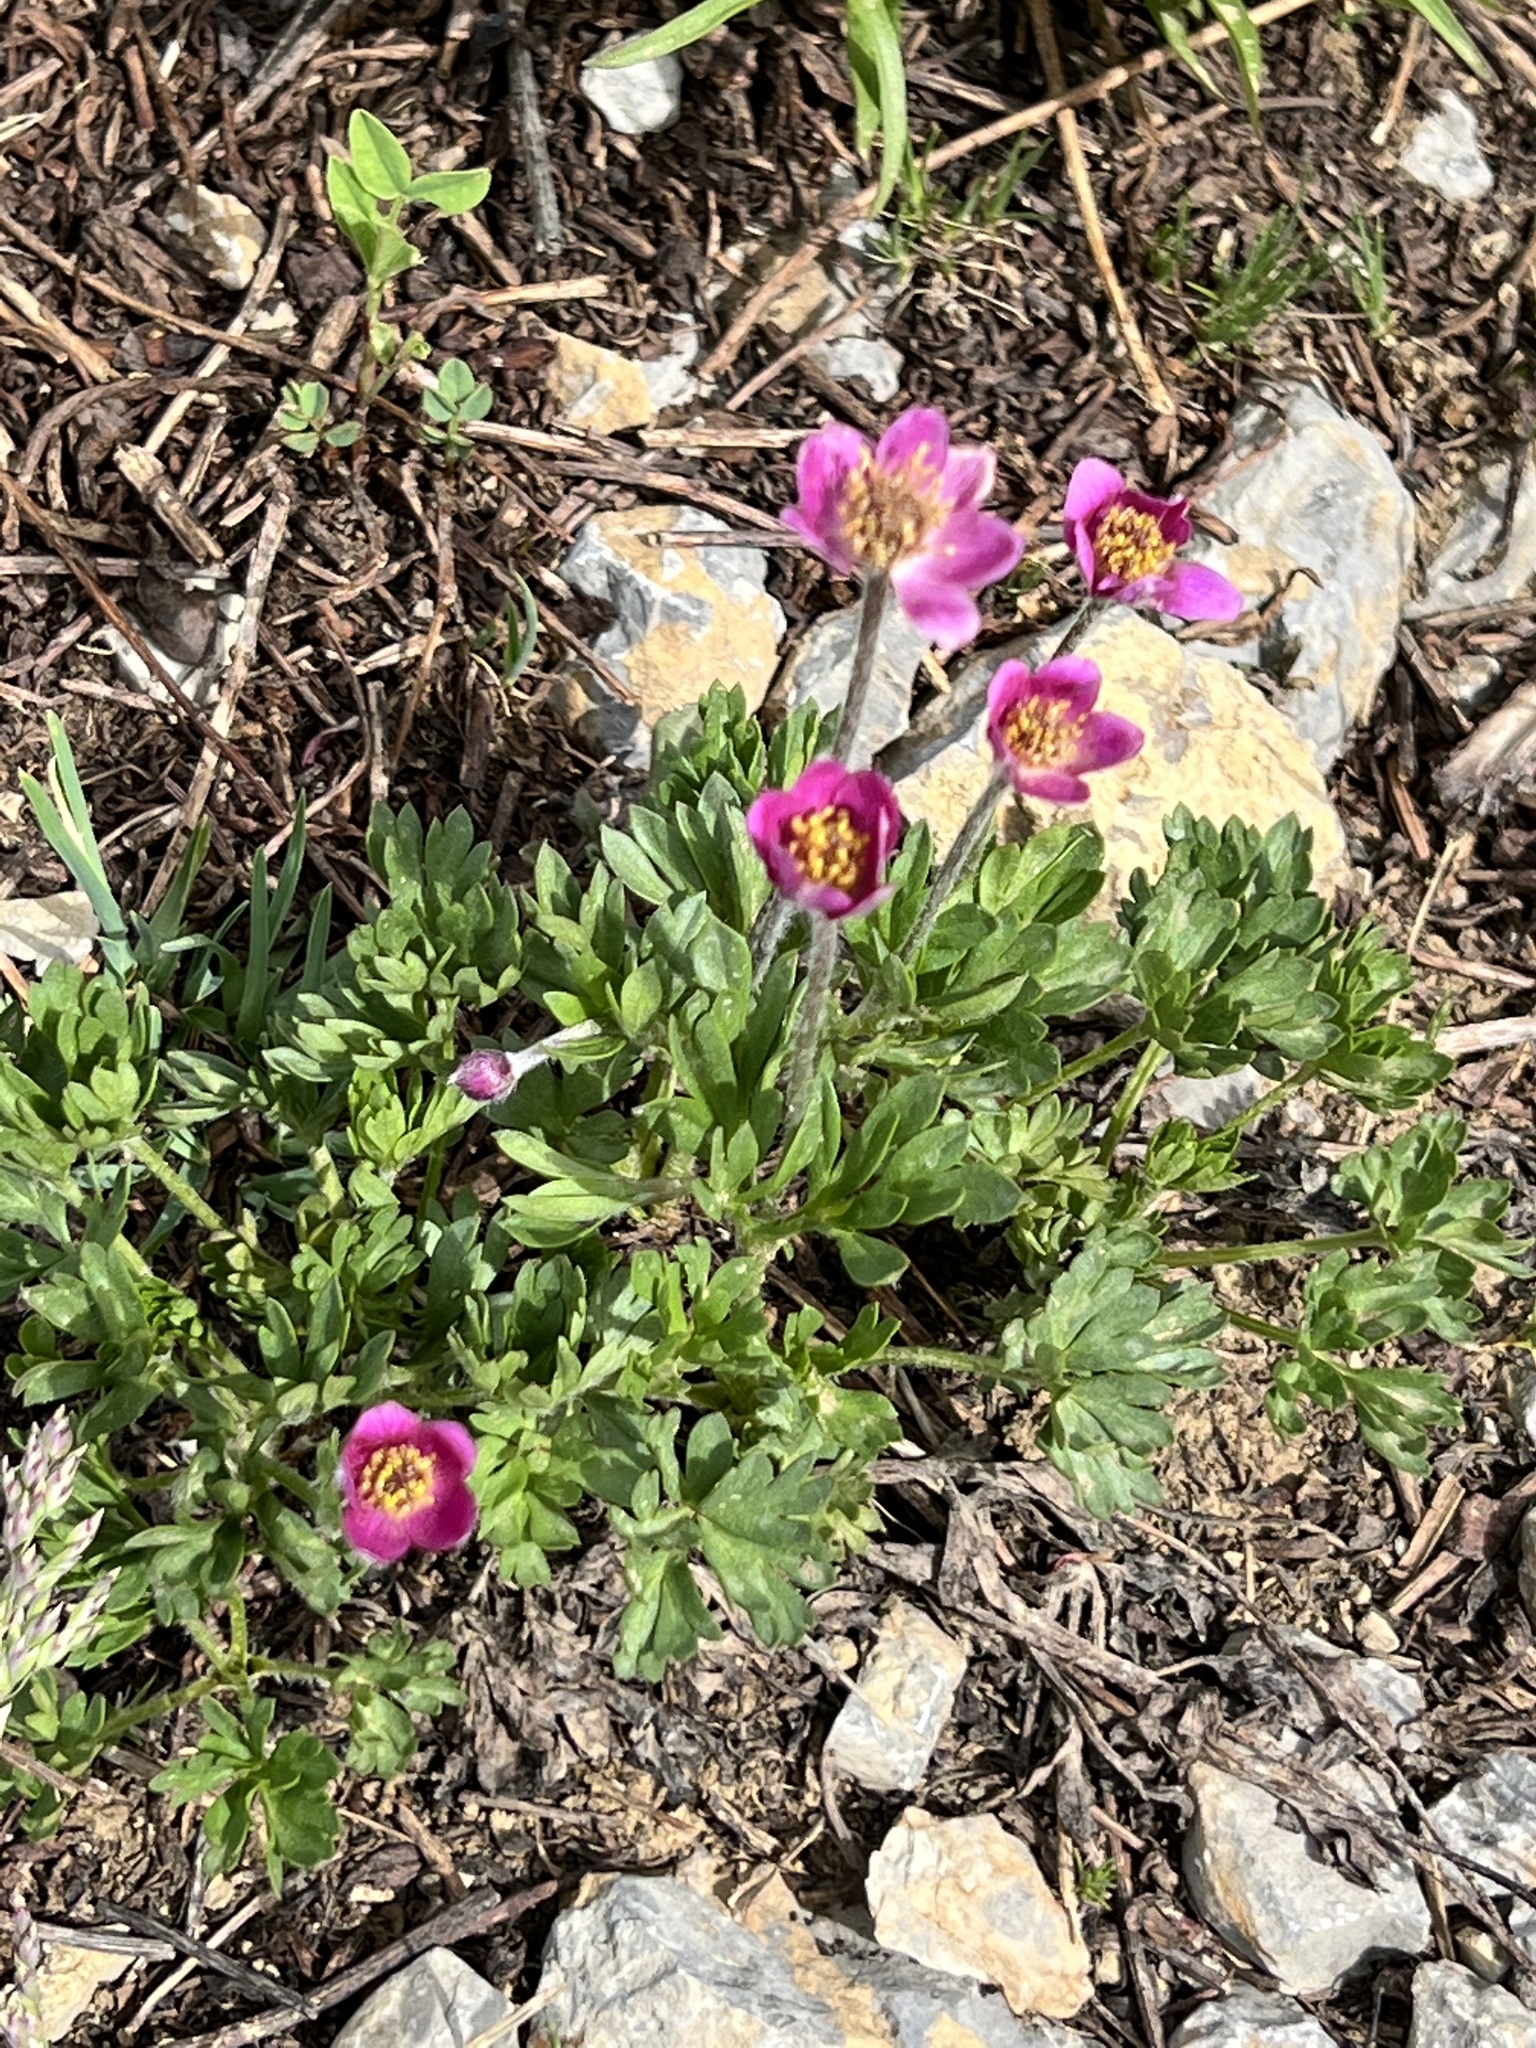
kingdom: Plantae
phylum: Tracheophyta
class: Magnoliopsida
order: Ranunculales
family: Ranunculaceae
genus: Anemone
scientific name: Anemone multifida
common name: Bird's-foot anemone
